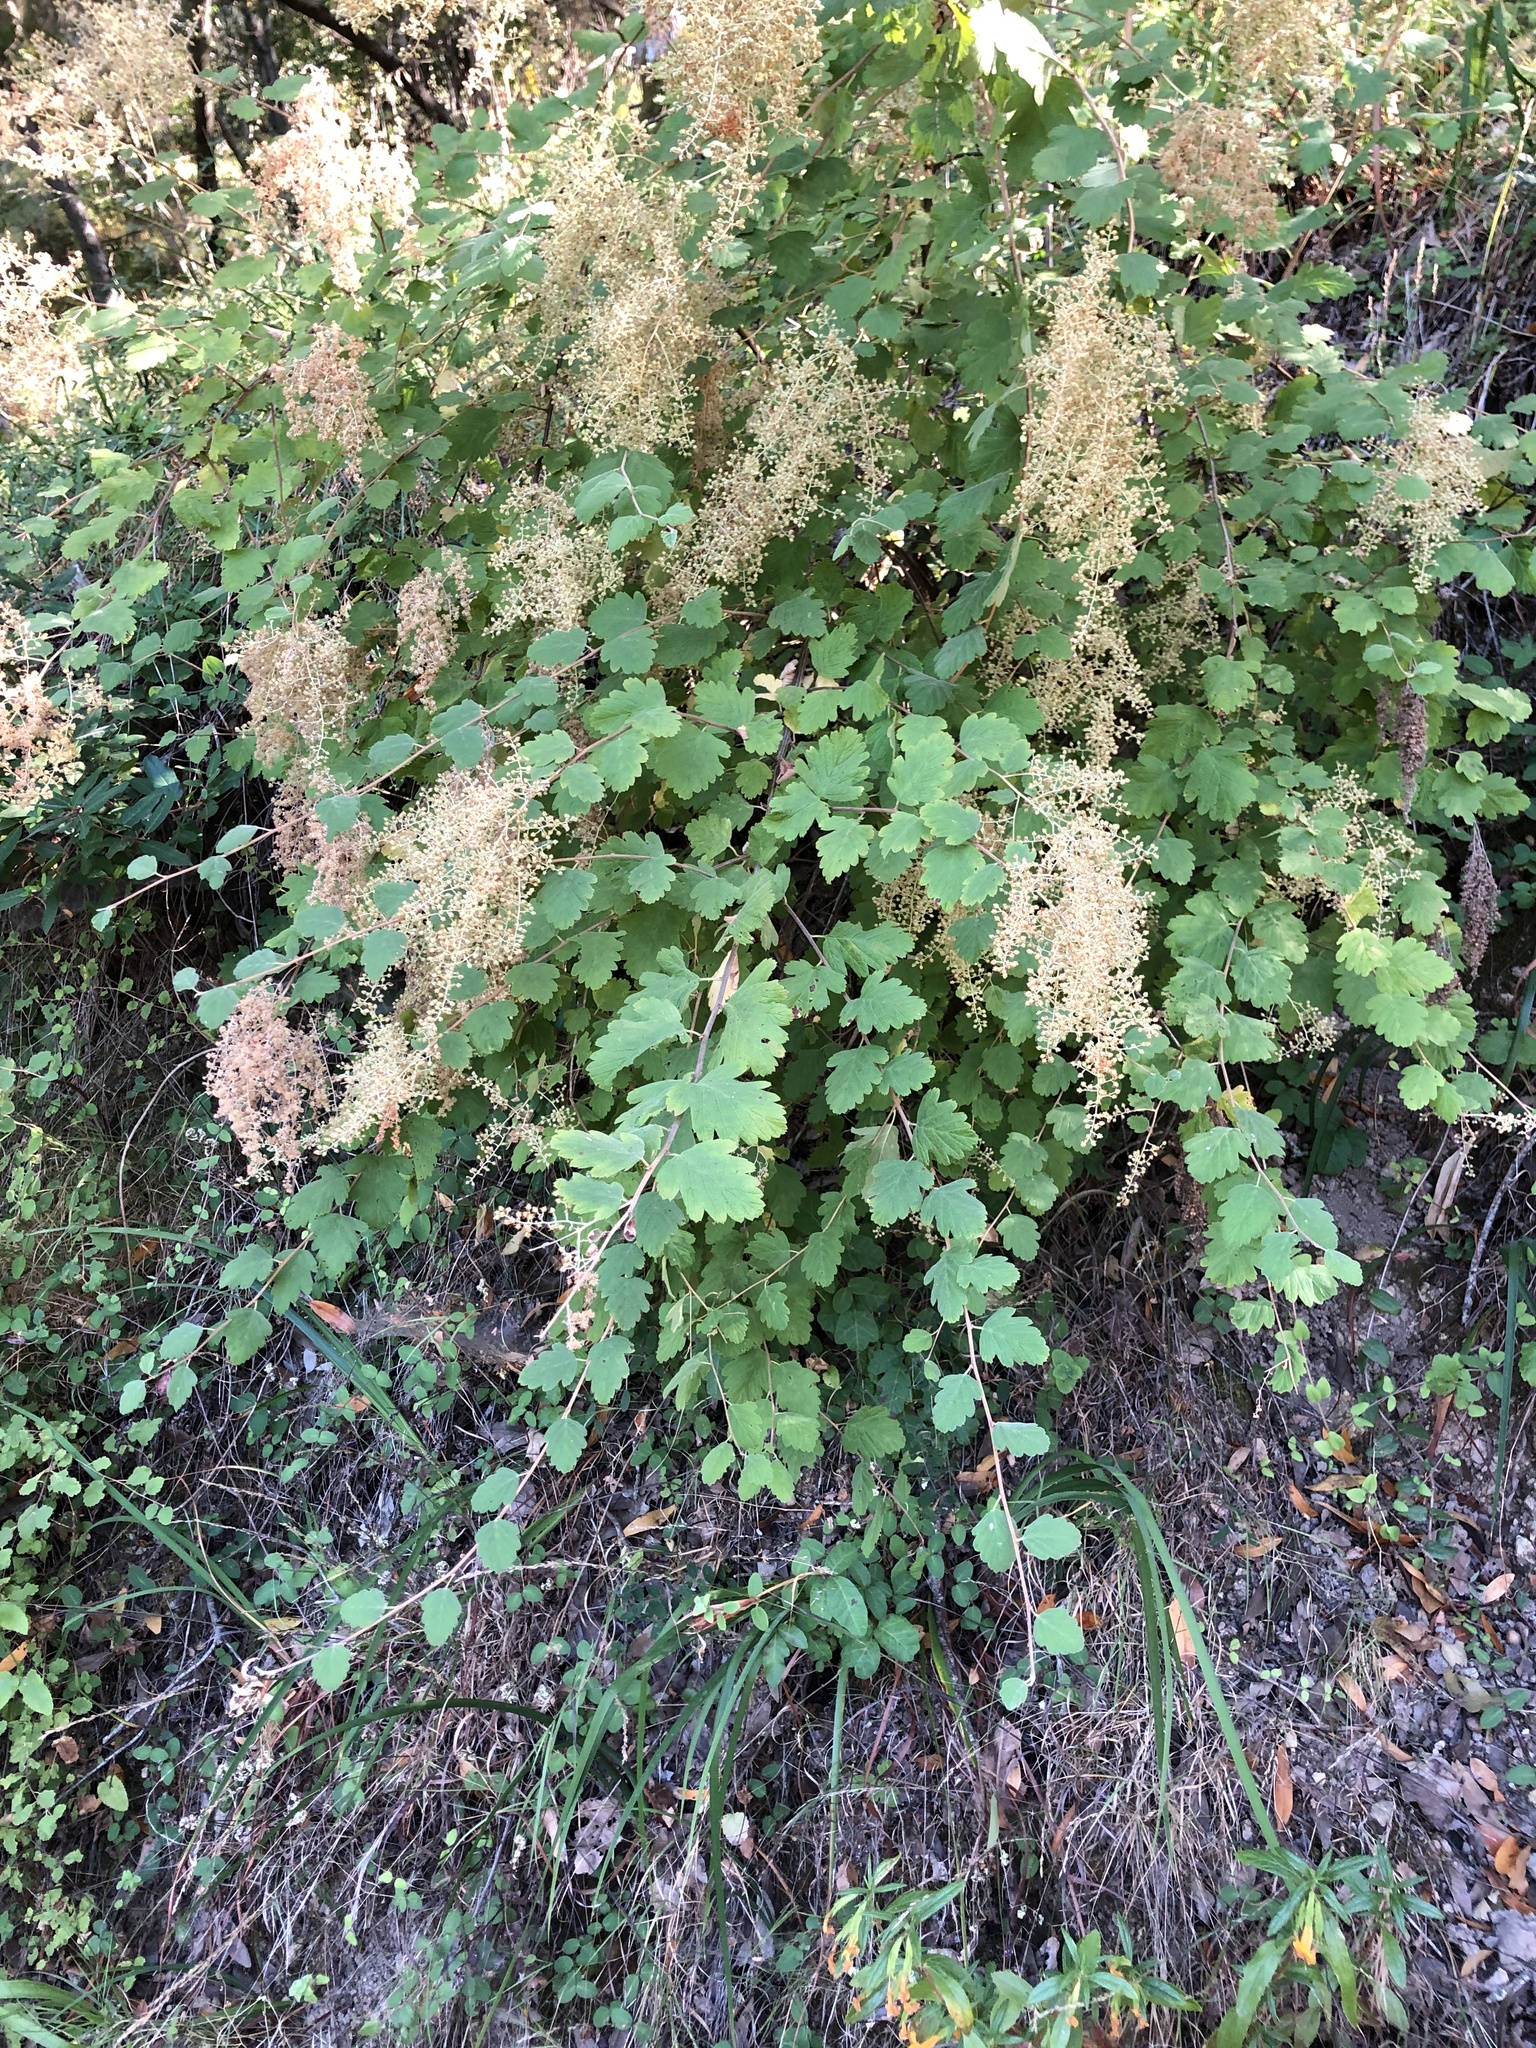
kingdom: Plantae
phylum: Tracheophyta
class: Magnoliopsida
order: Rosales
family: Rosaceae
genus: Holodiscus
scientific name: Holodiscus discolor
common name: Oceanspray
